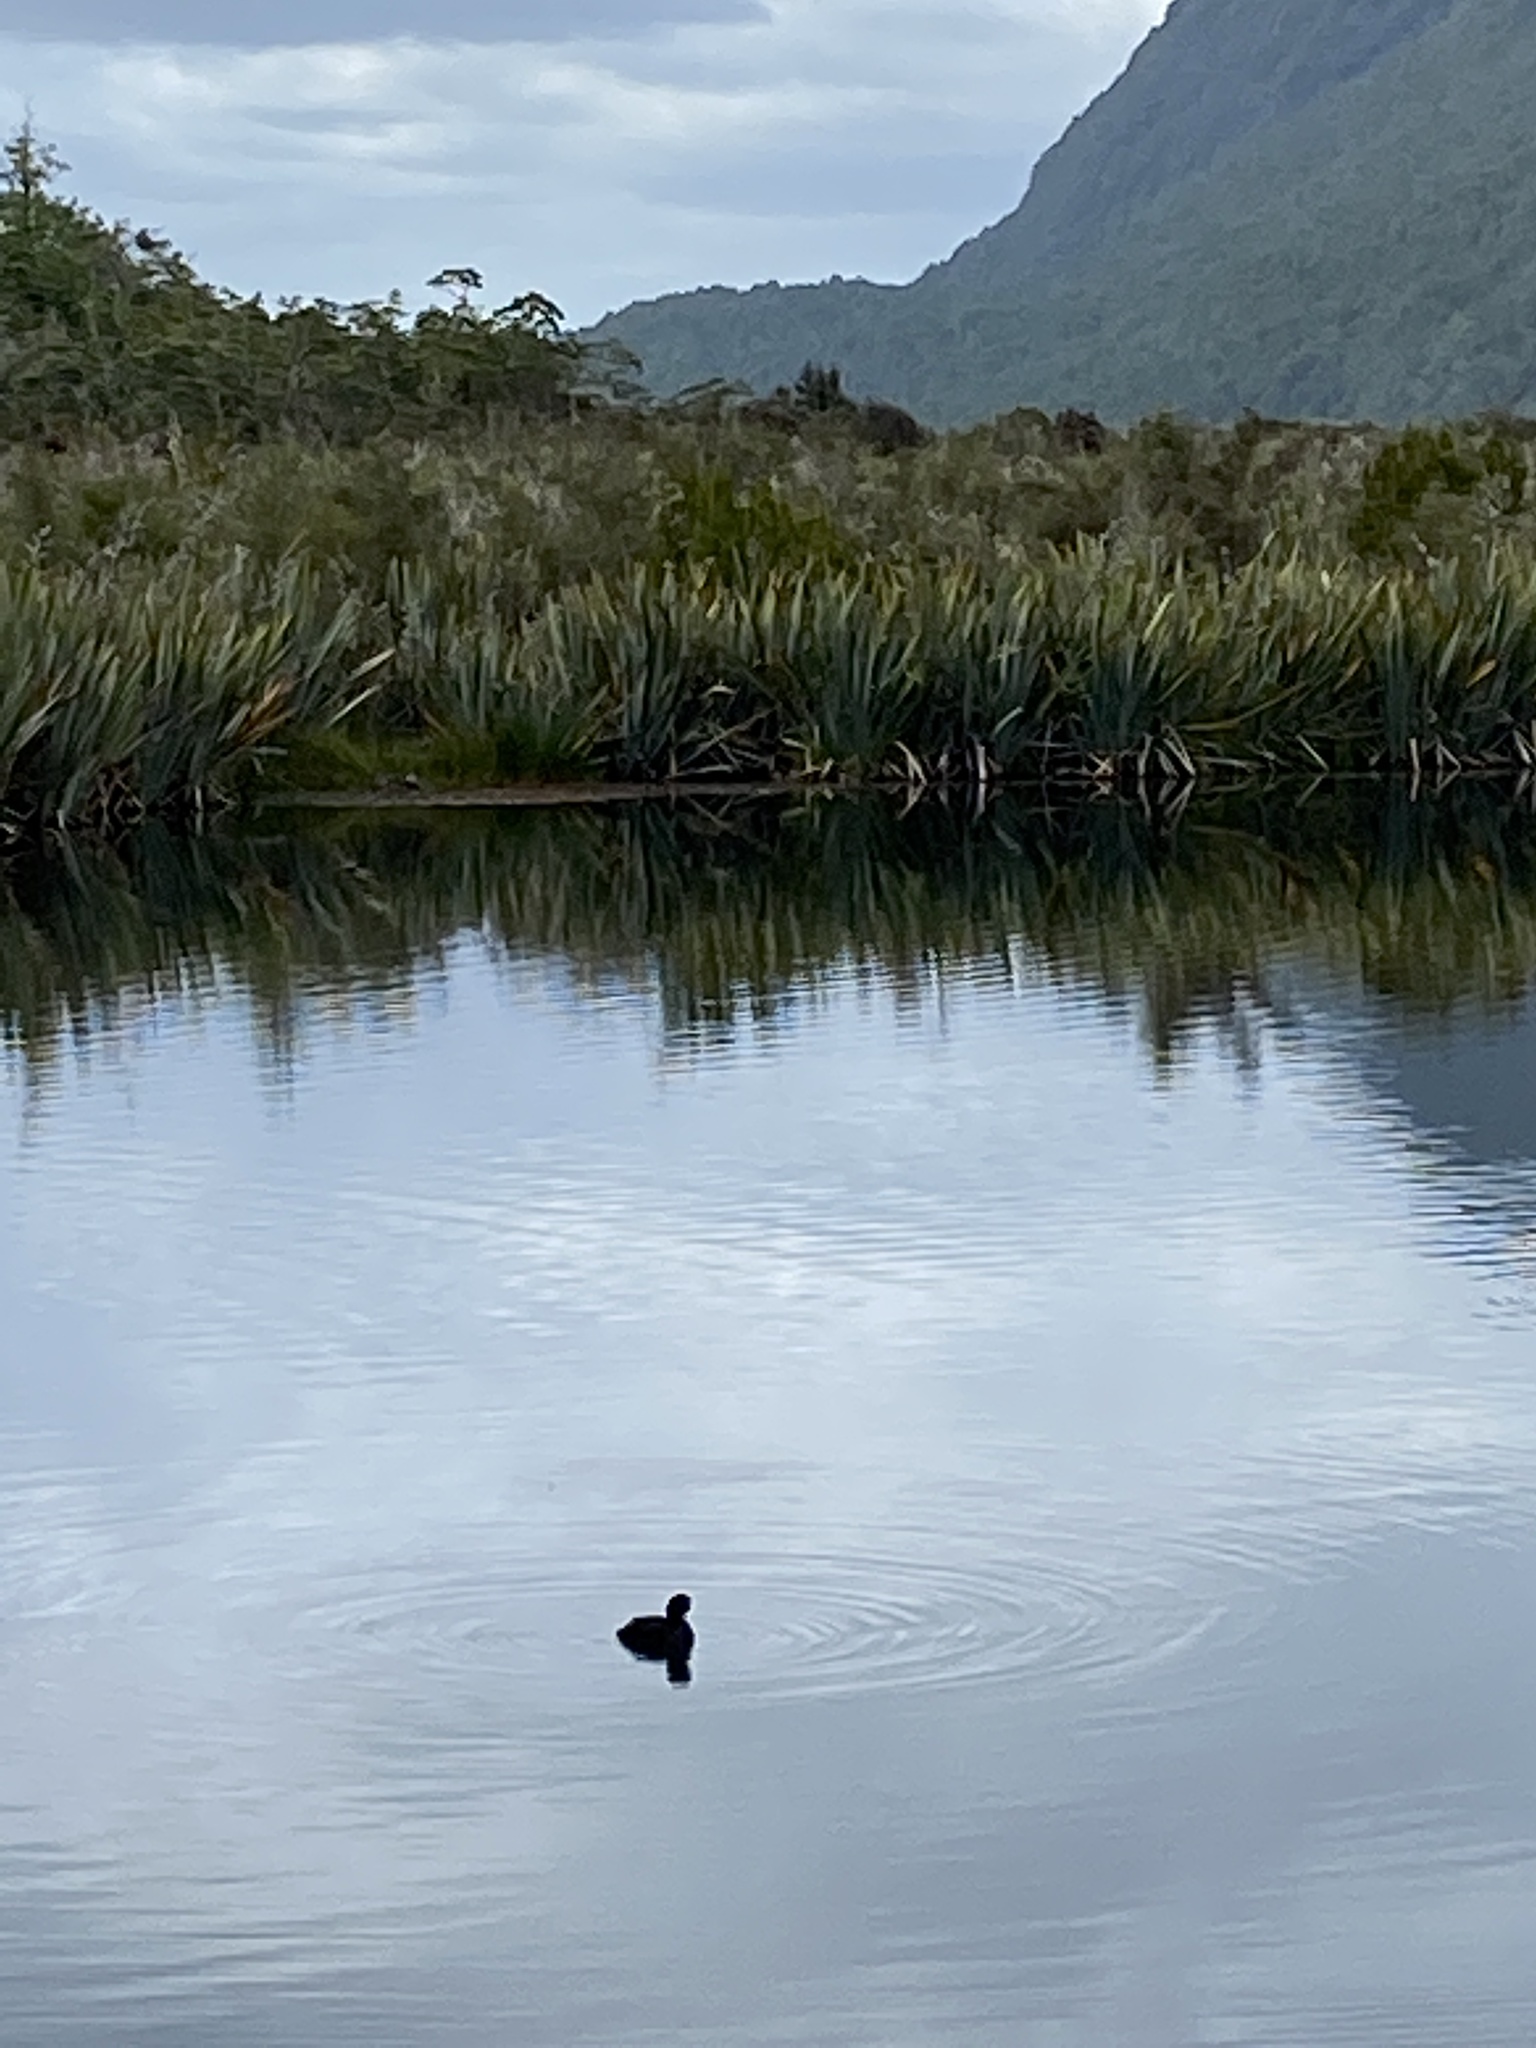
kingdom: Animalia
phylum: Chordata
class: Aves
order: Anseriformes
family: Anatidae
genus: Aythya
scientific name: Aythya novaeseelandiae
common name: New zealand scaup
